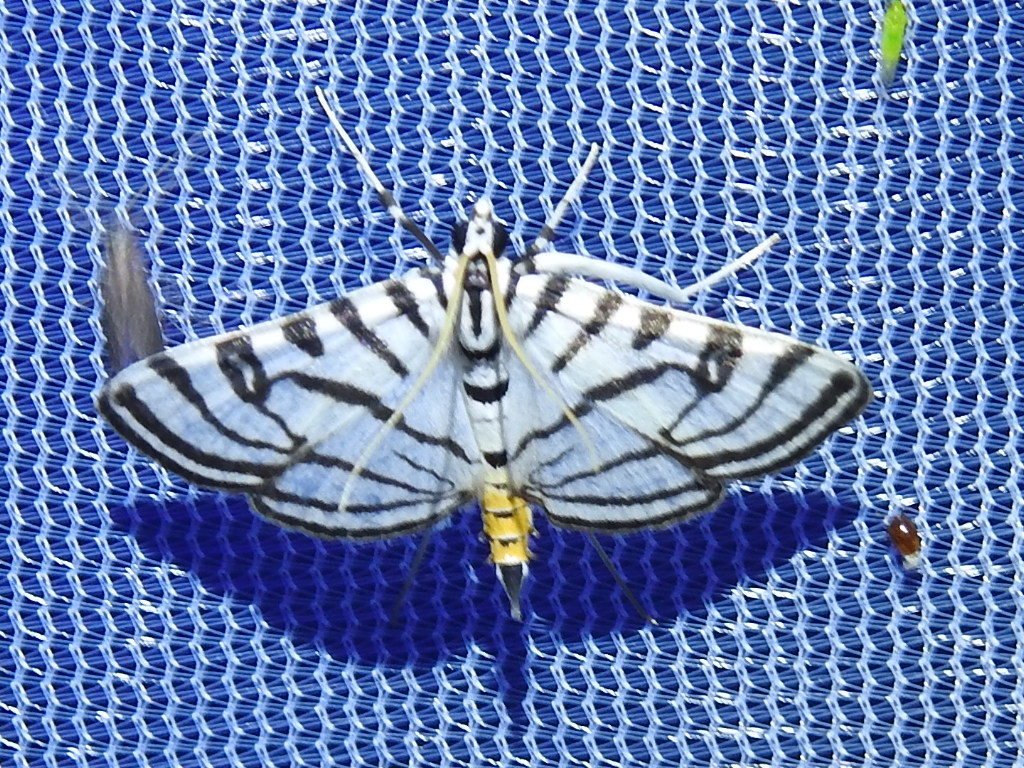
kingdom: Animalia
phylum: Arthropoda
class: Insecta
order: Lepidoptera
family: Crambidae
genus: Conchylodes
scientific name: Conchylodes ovulalis
